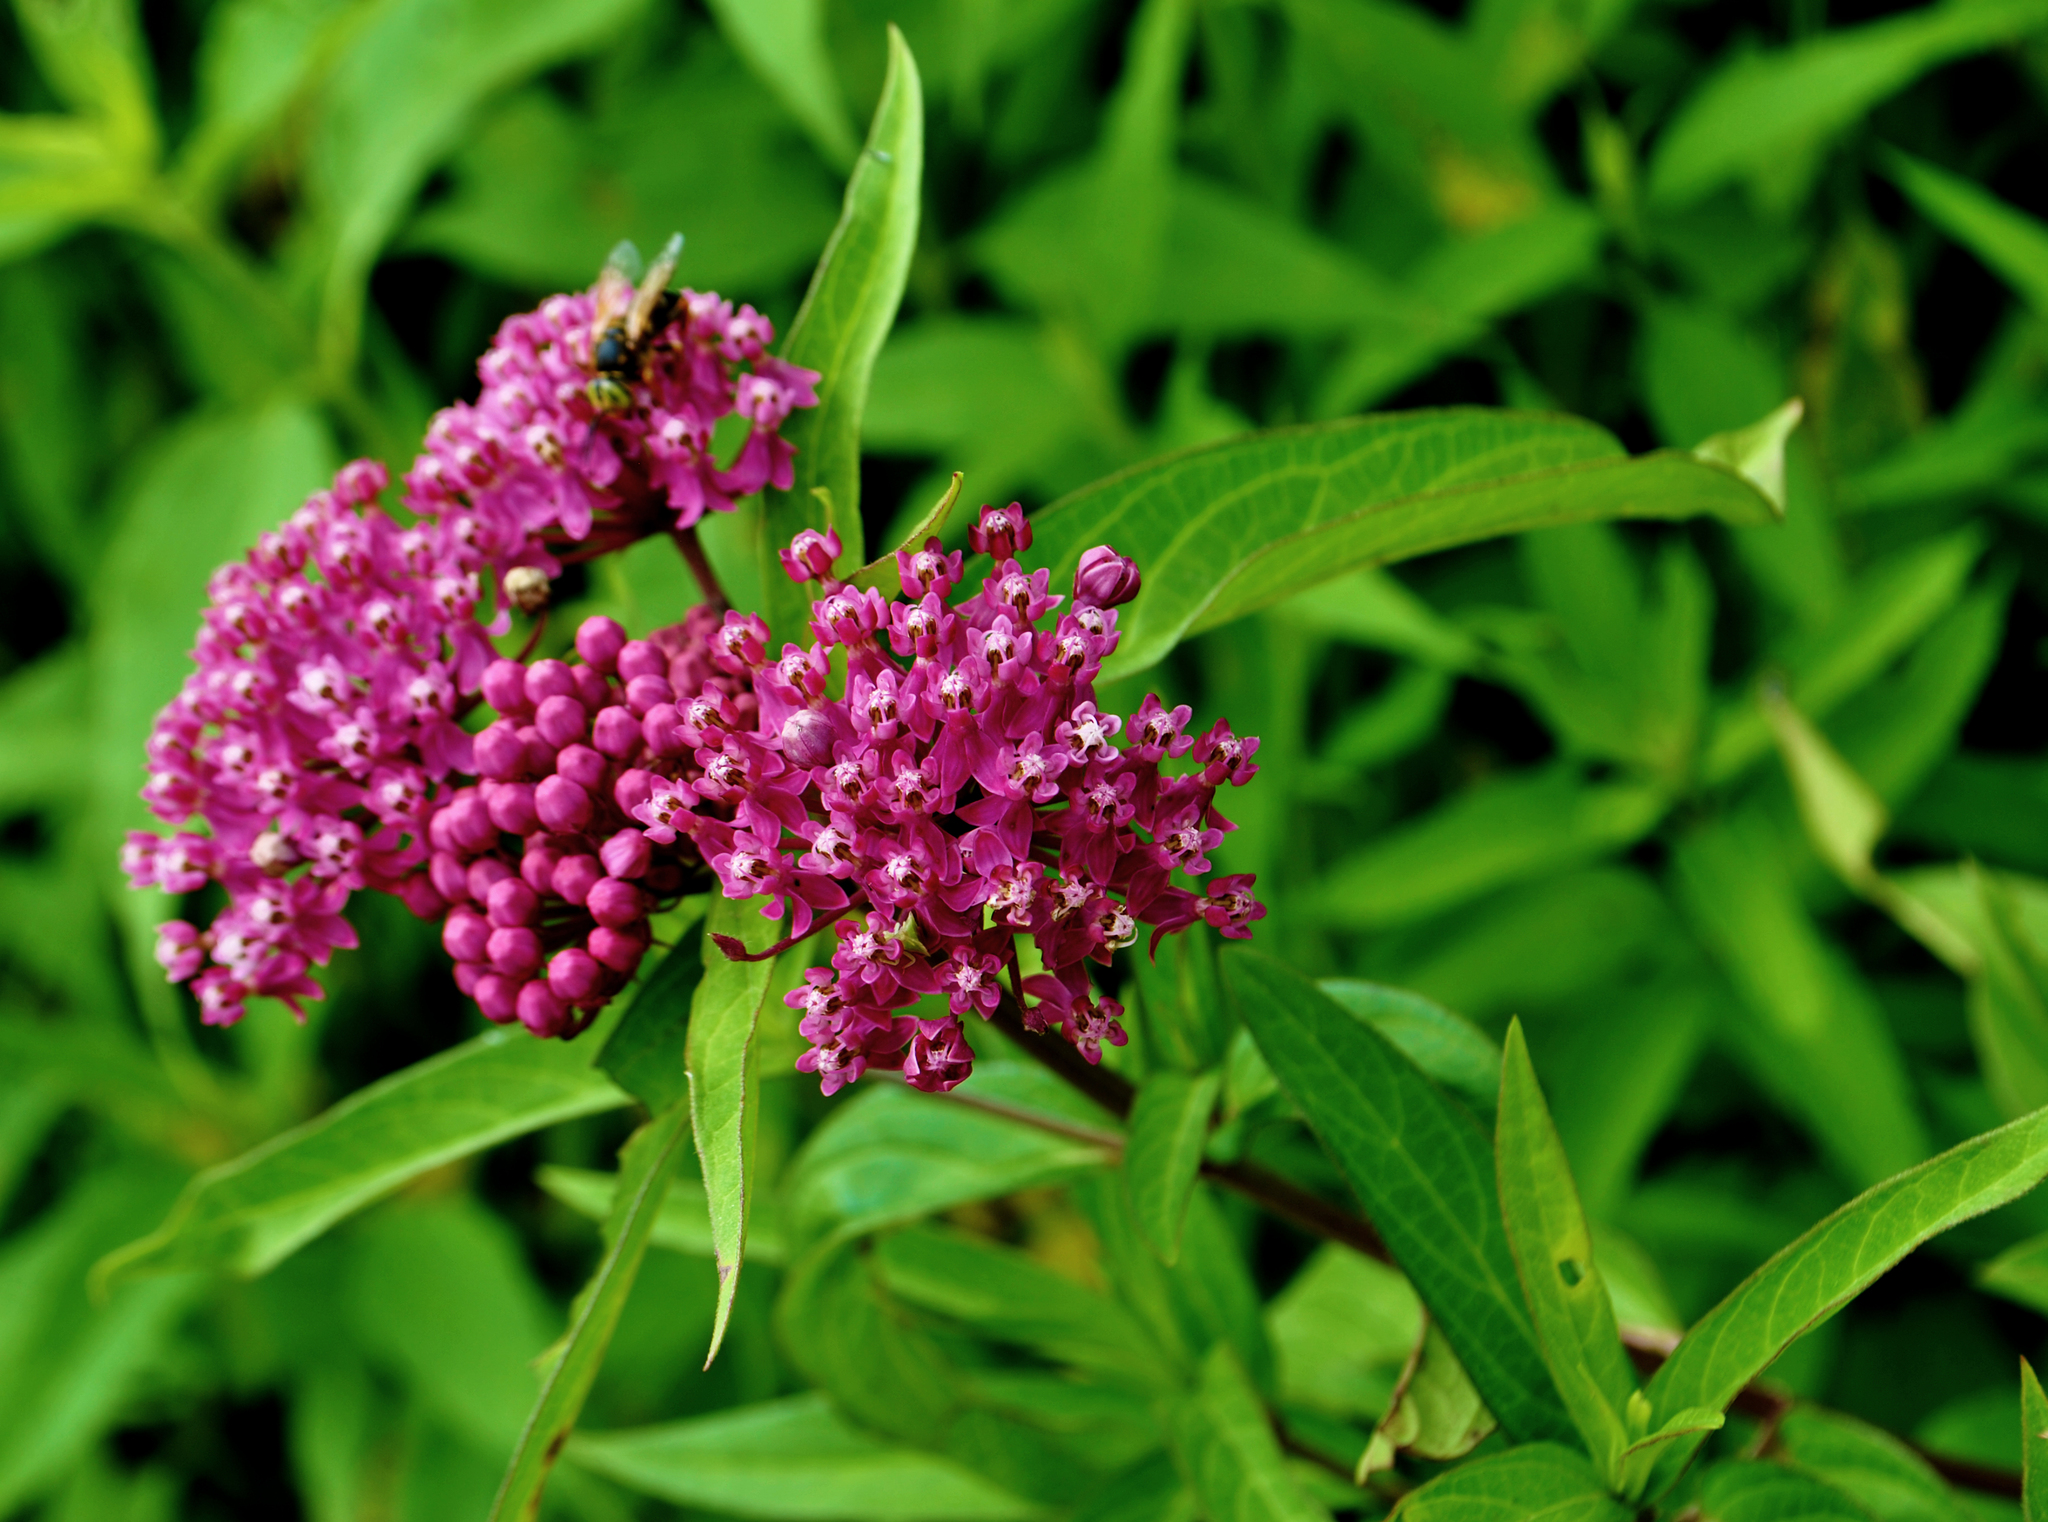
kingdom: Plantae
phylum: Tracheophyta
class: Magnoliopsida
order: Gentianales
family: Apocynaceae
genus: Asclepias
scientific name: Asclepias incarnata
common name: Swamp milkweed
